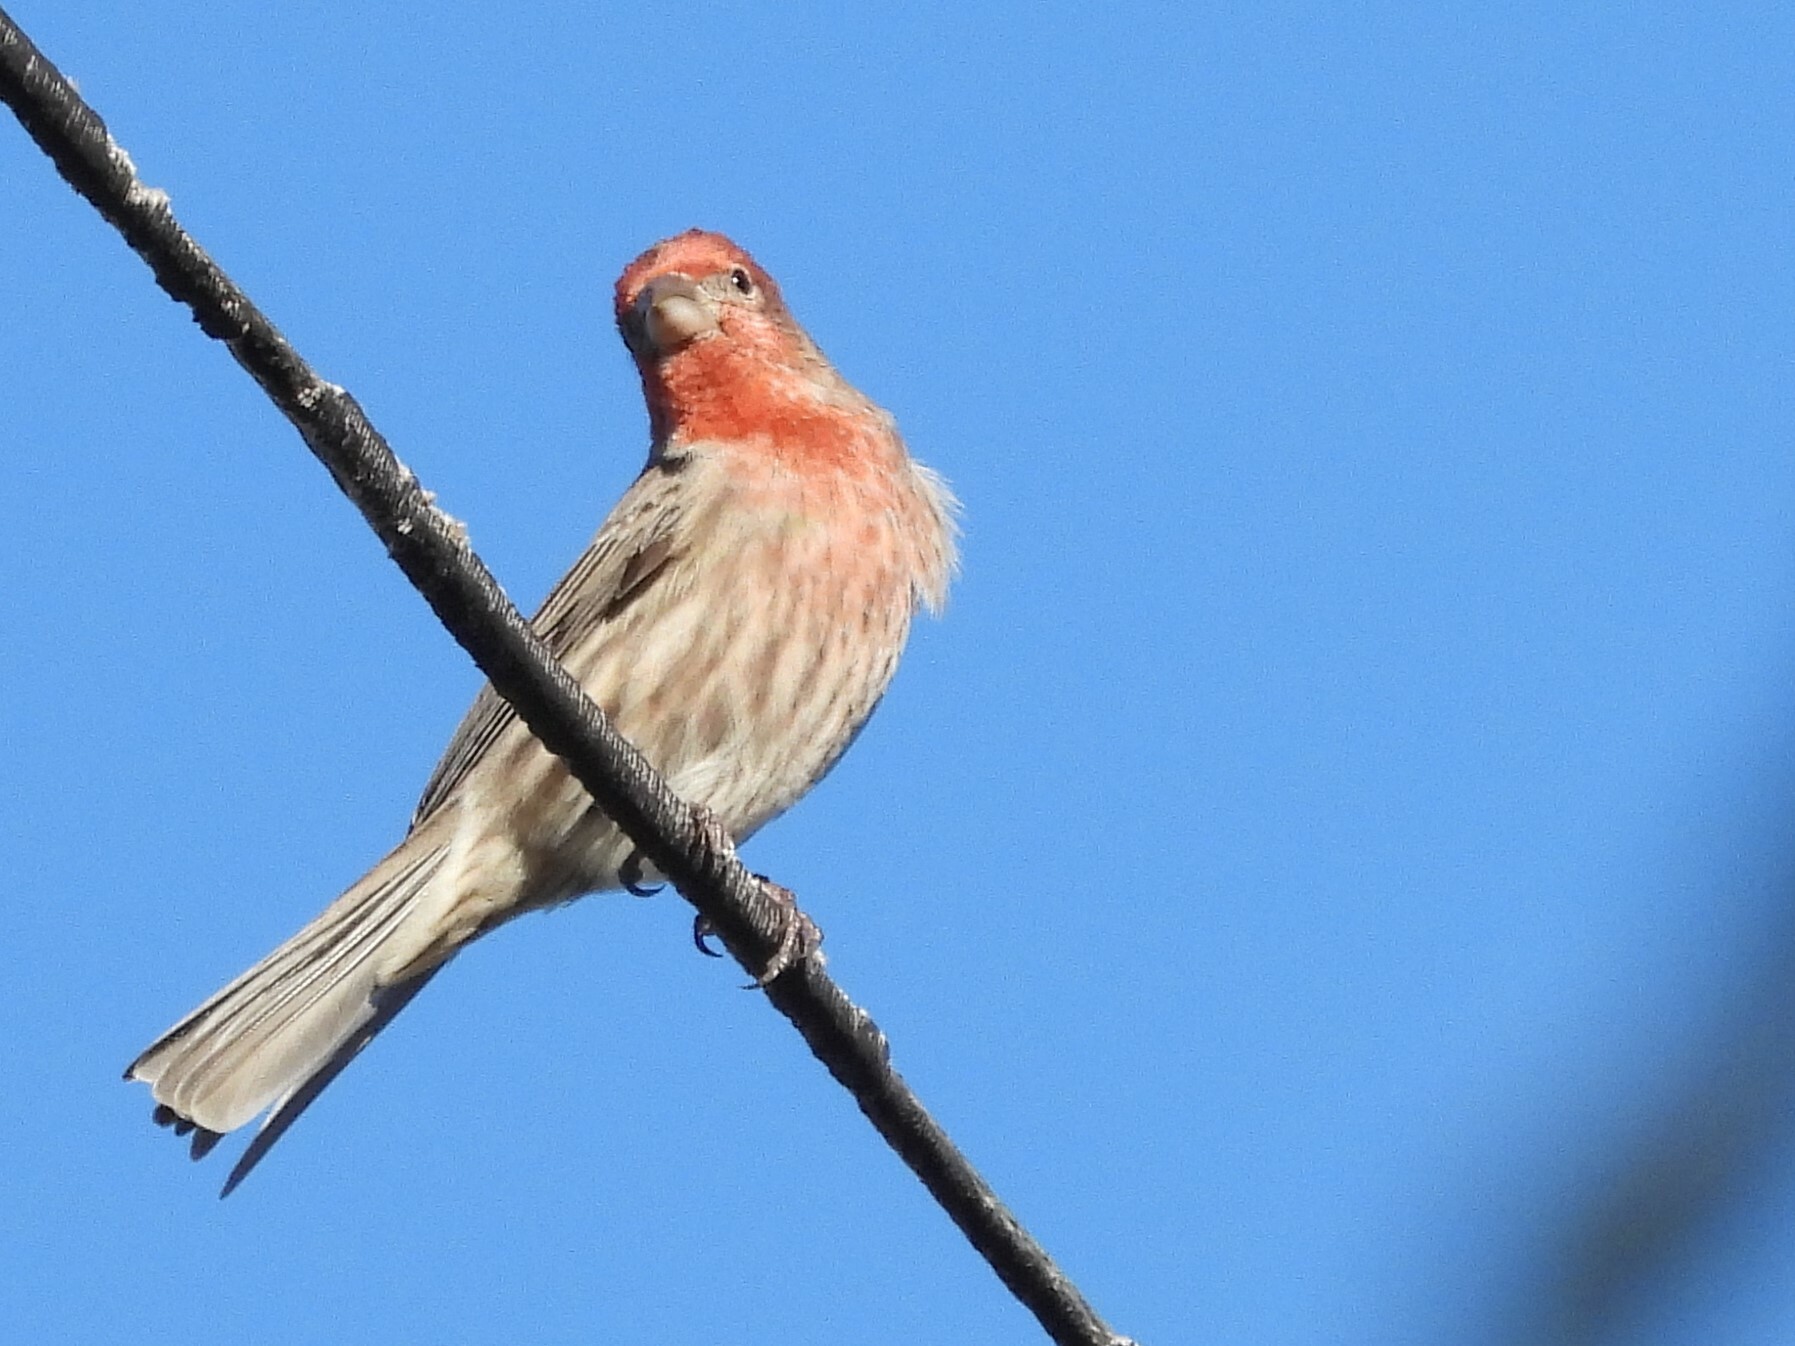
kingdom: Animalia
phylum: Chordata
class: Aves
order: Passeriformes
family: Fringillidae
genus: Haemorhous
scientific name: Haemorhous mexicanus
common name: House finch
